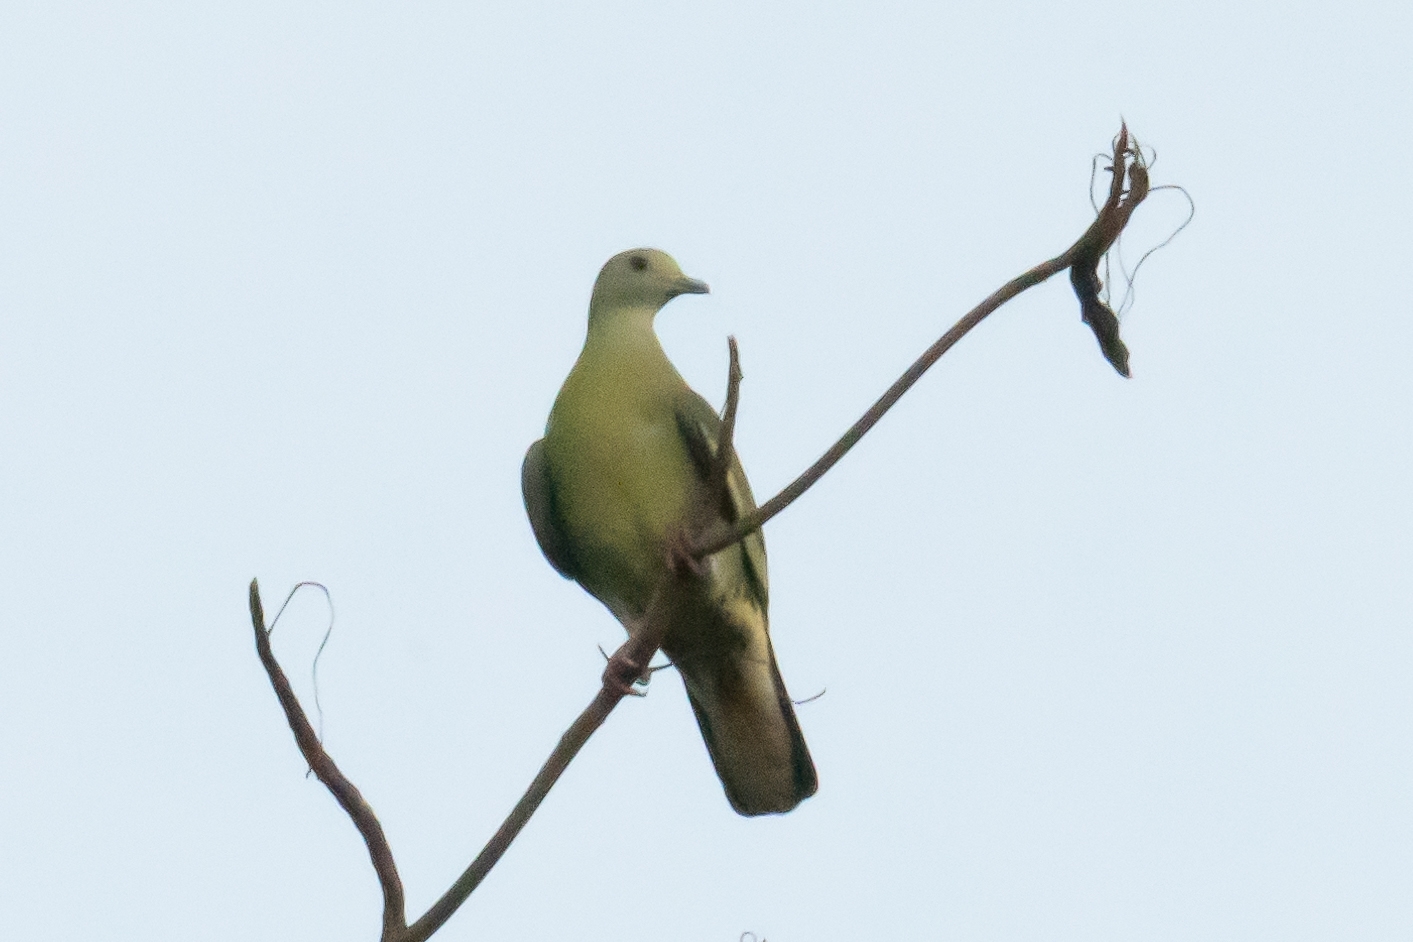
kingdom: Animalia
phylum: Chordata
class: Aves
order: Columbiformes
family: Columbidae
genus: Treron
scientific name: Treron vernans
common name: Pink-necked green pigeon
